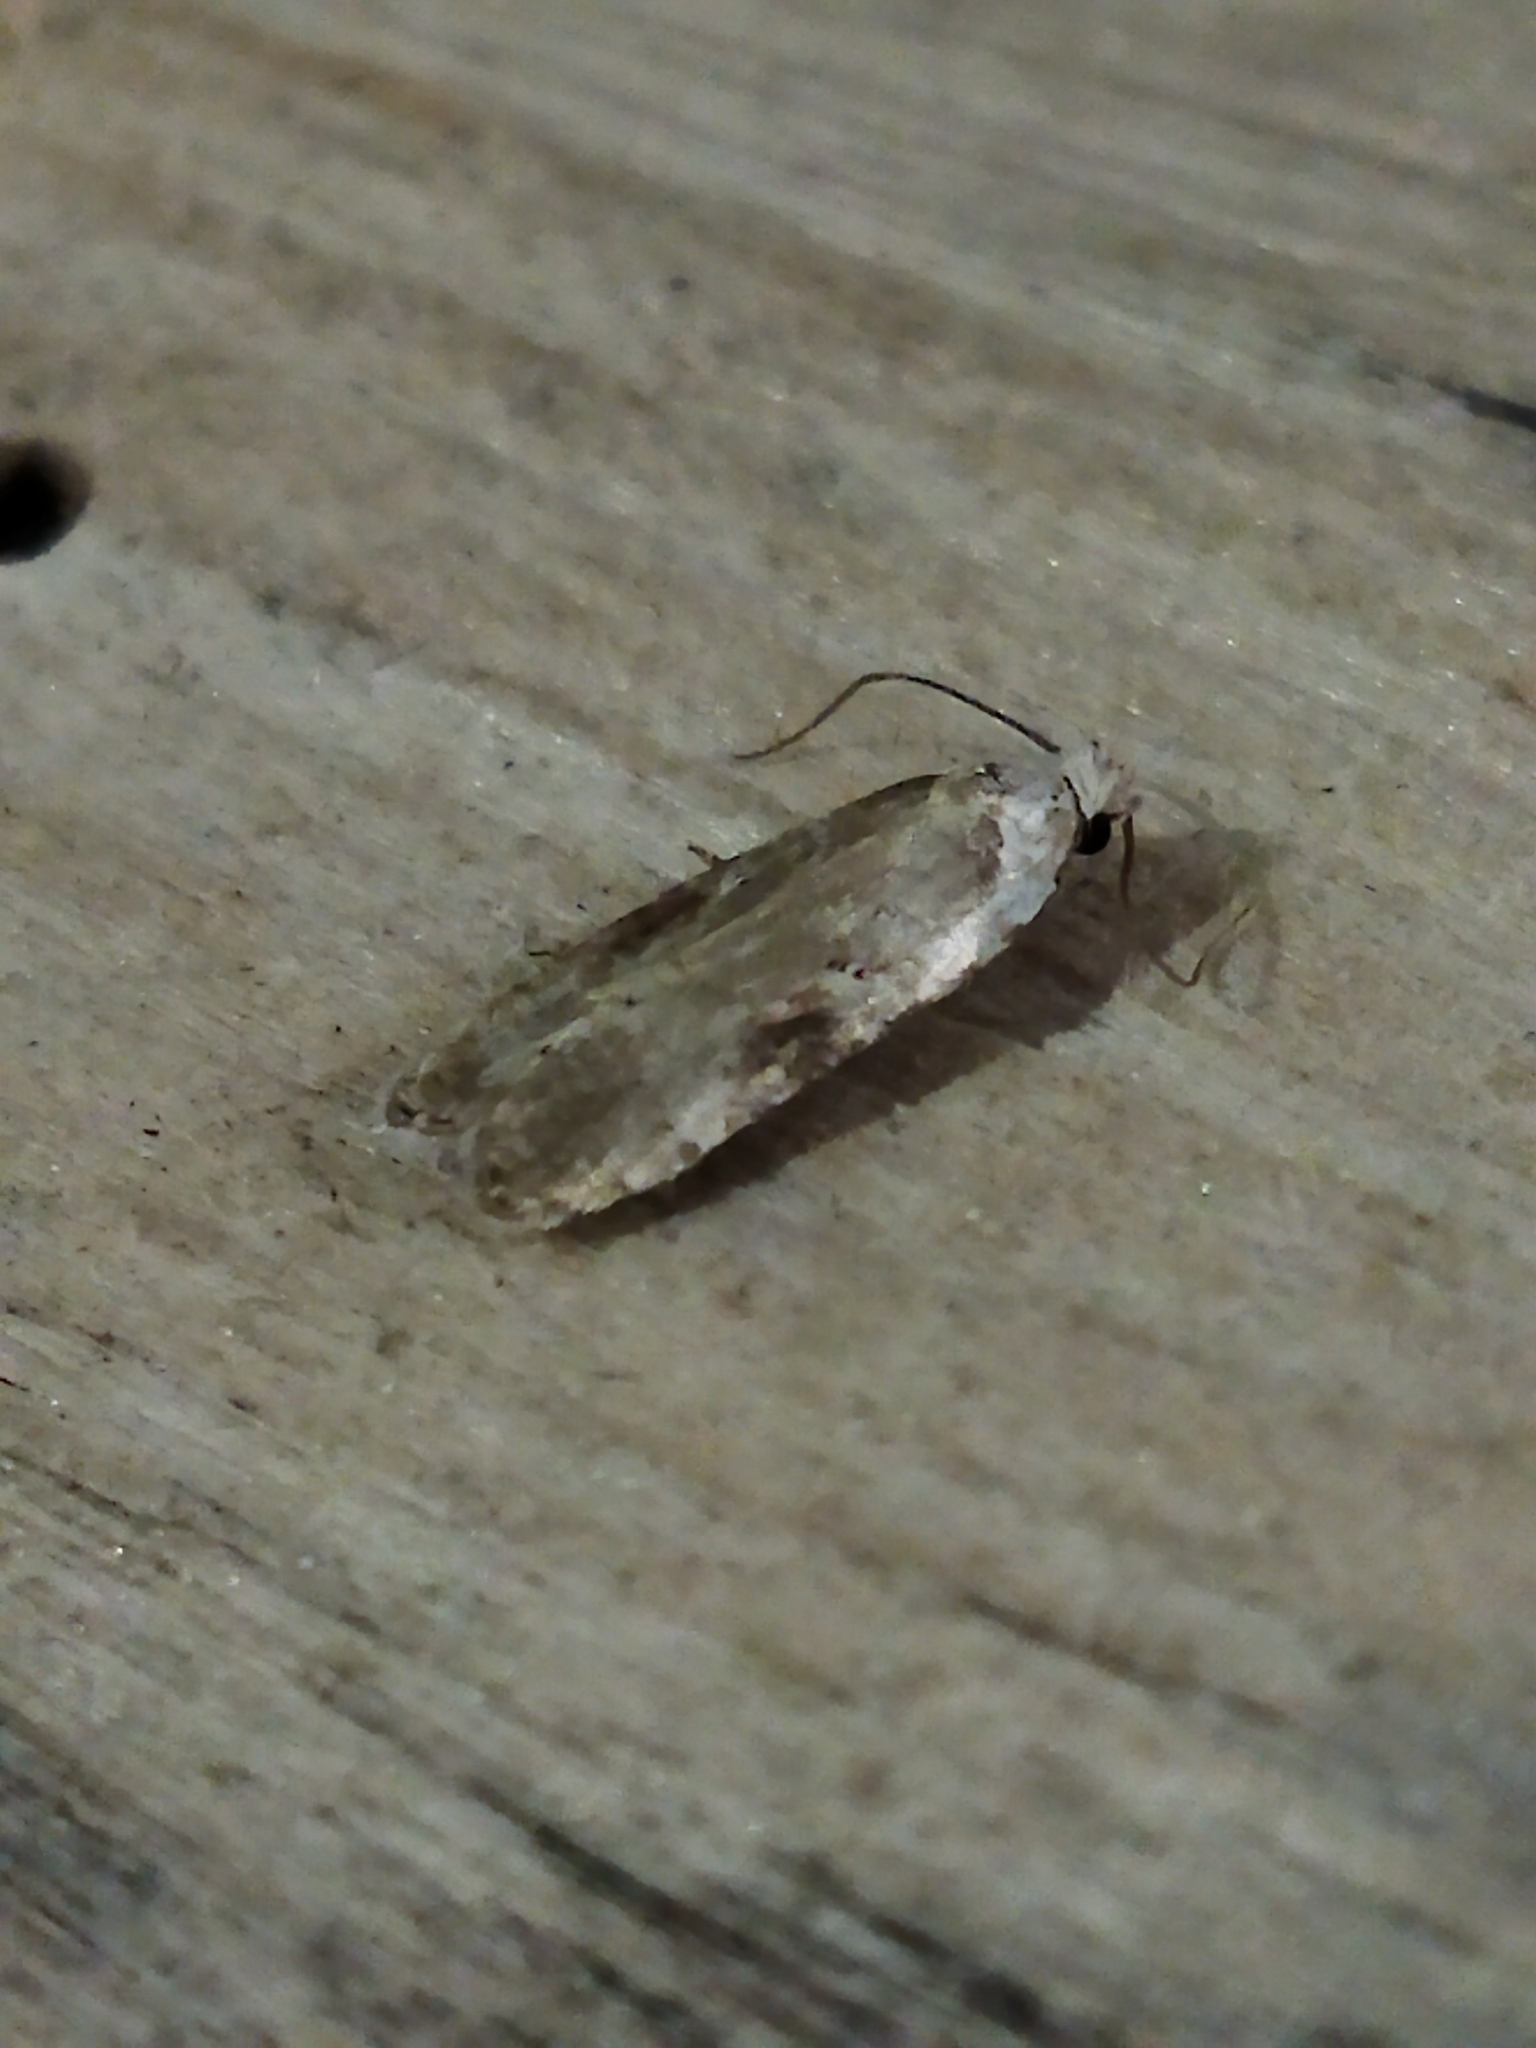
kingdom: Animalia
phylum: Arthropoda
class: Insecta
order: Lepidoptera
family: Depressariidae
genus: Agonopterix
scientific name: Agonopterix alstroemeriana
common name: Moth
